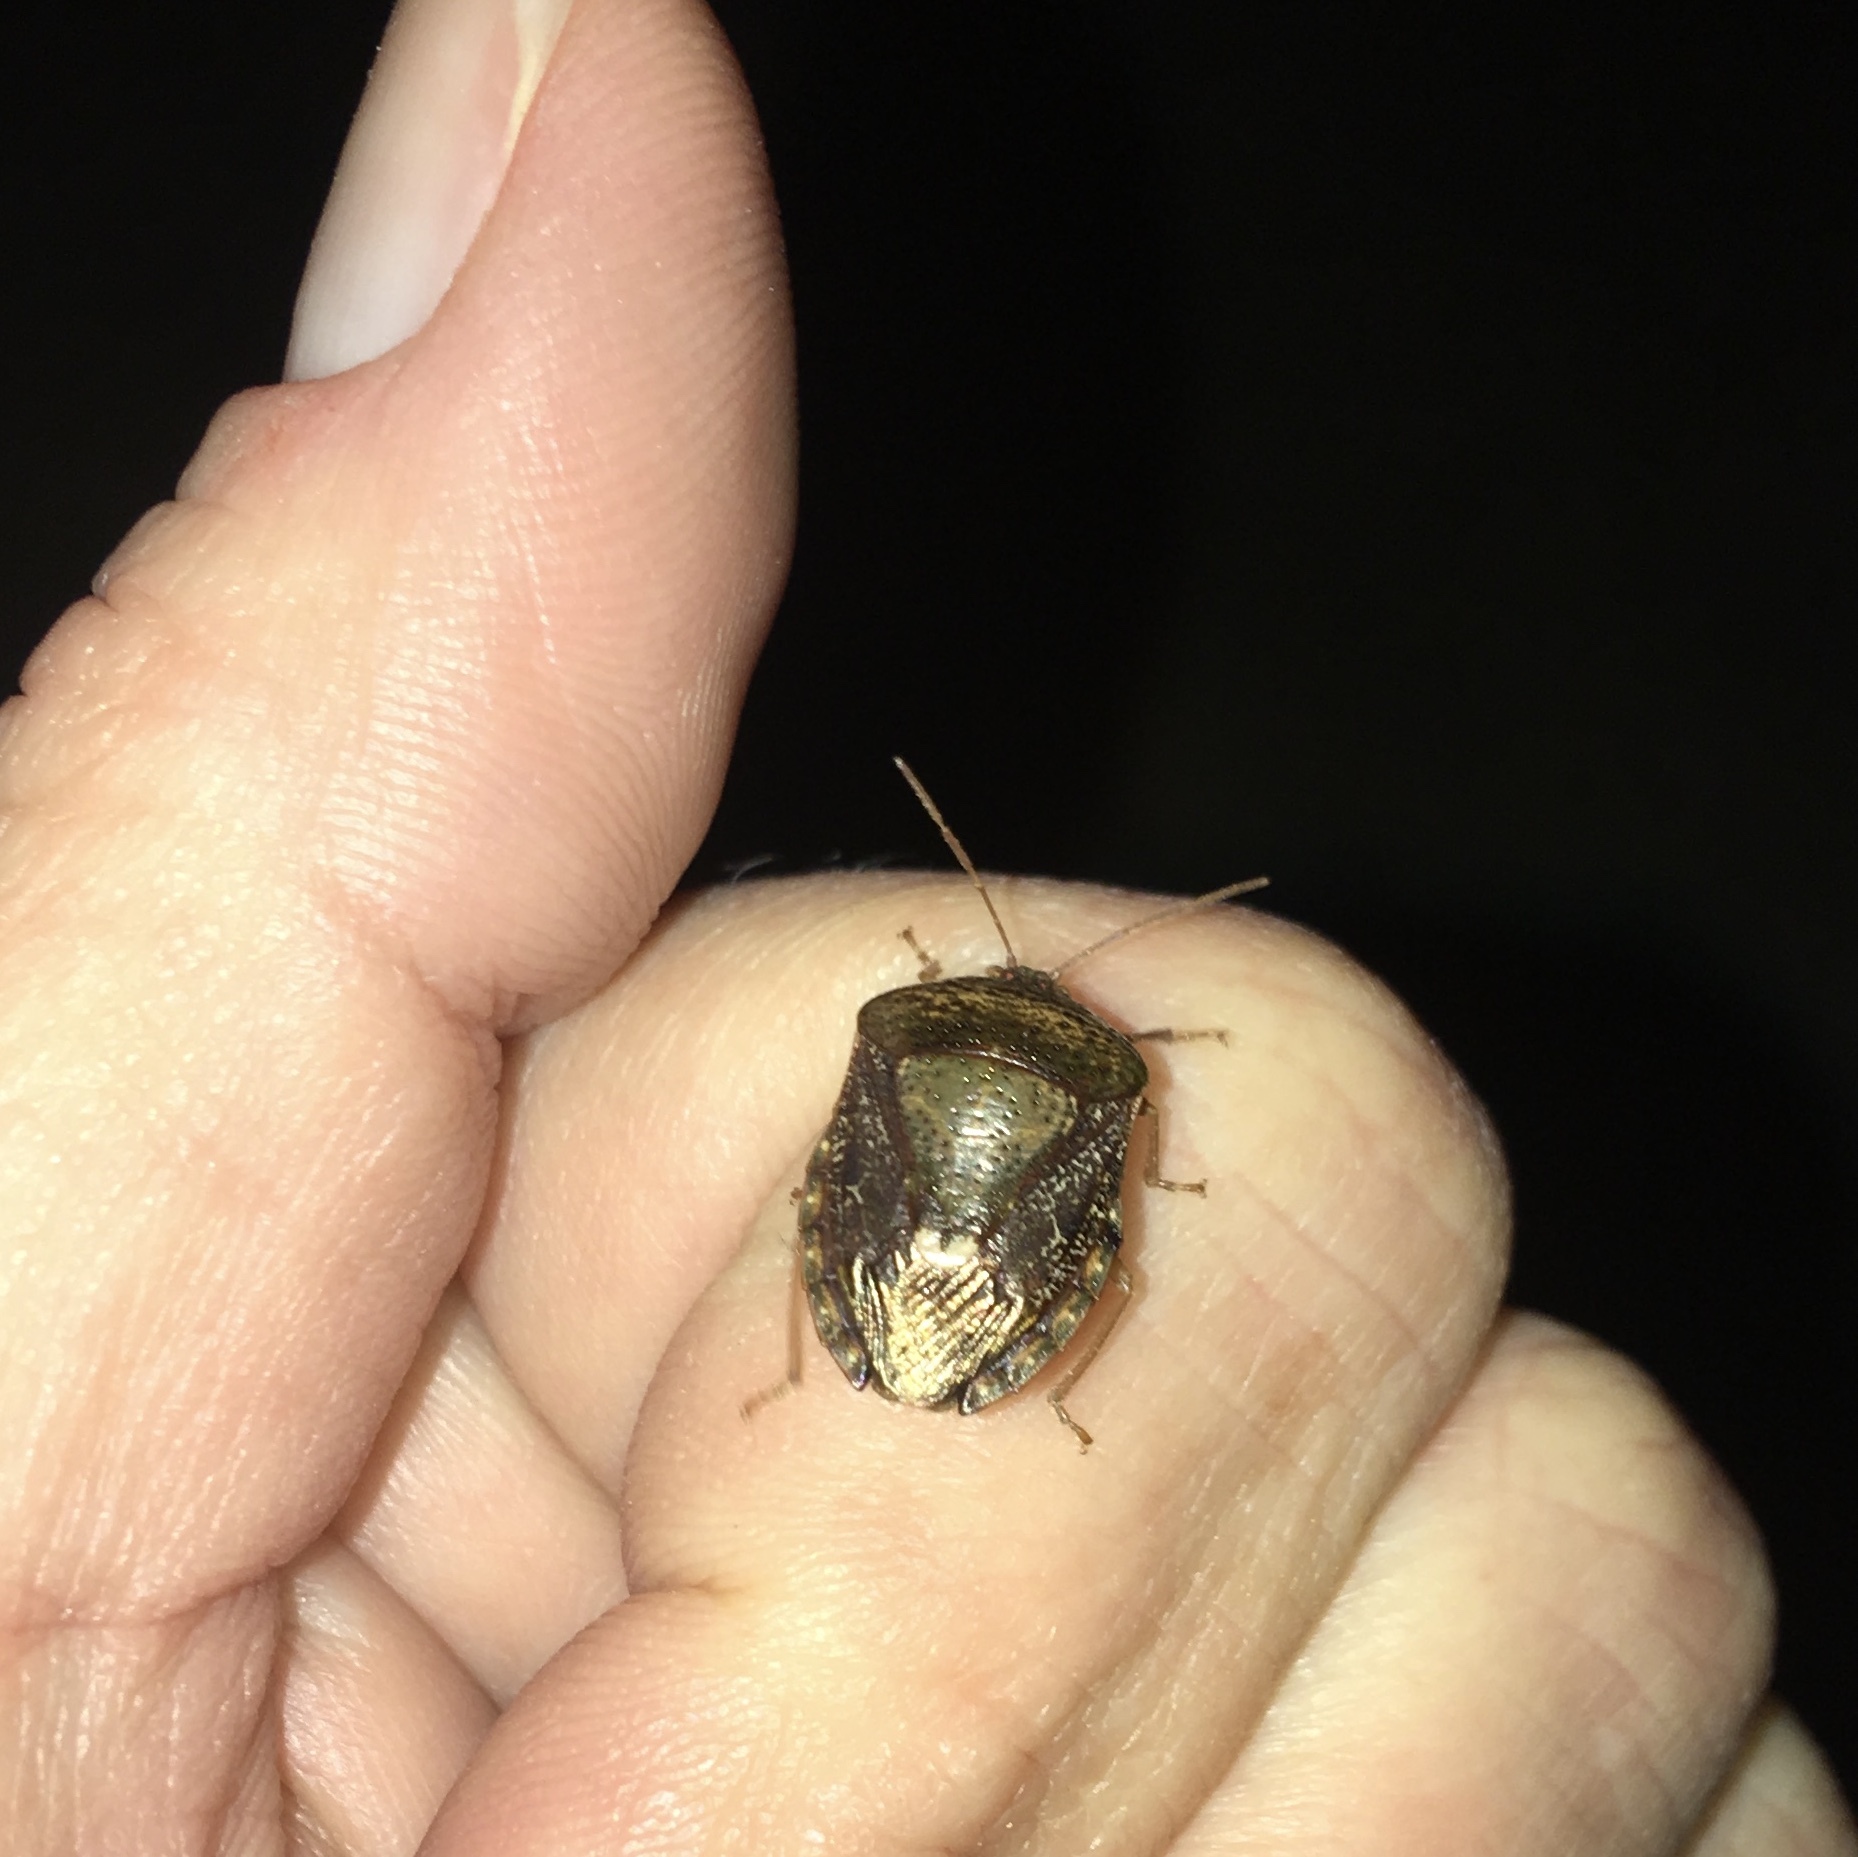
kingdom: Animalia
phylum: Arthropoda
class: Insecta
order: Hemiptera
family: Pentatomidae
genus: Edessa
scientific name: Edessa bifida
